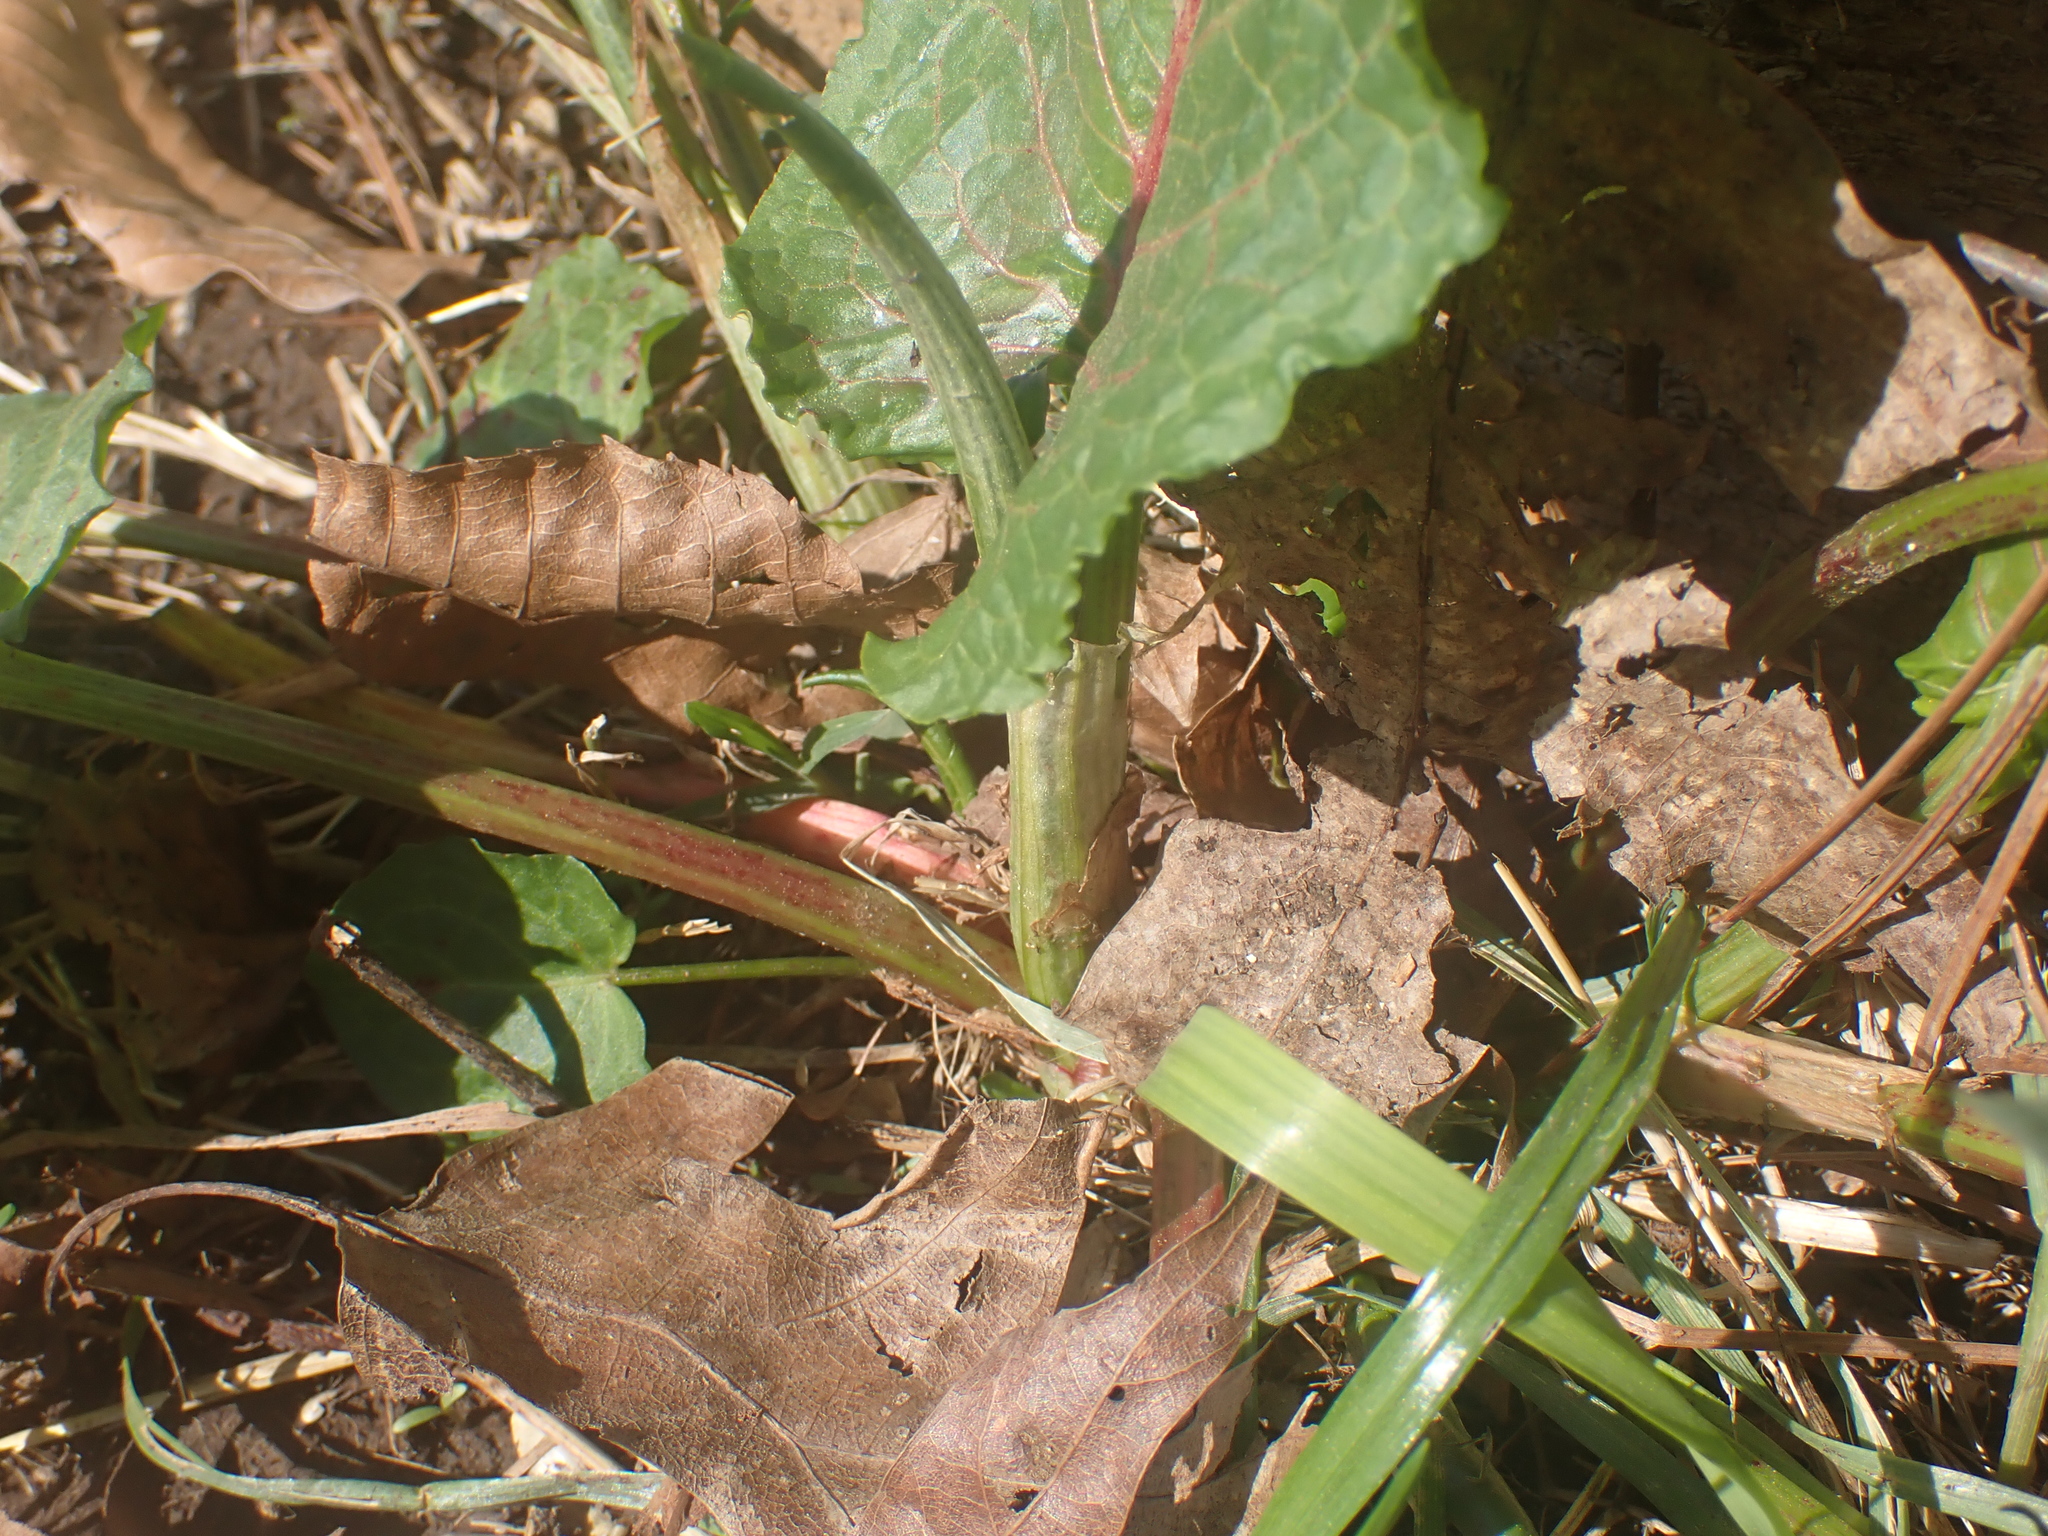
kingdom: Plantae
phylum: Tracheophyta
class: Magnoliopsida
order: Caryophyllales
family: Polygonaceae
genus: Rumex
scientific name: Rumex obtusifolius
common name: Bitter dock
